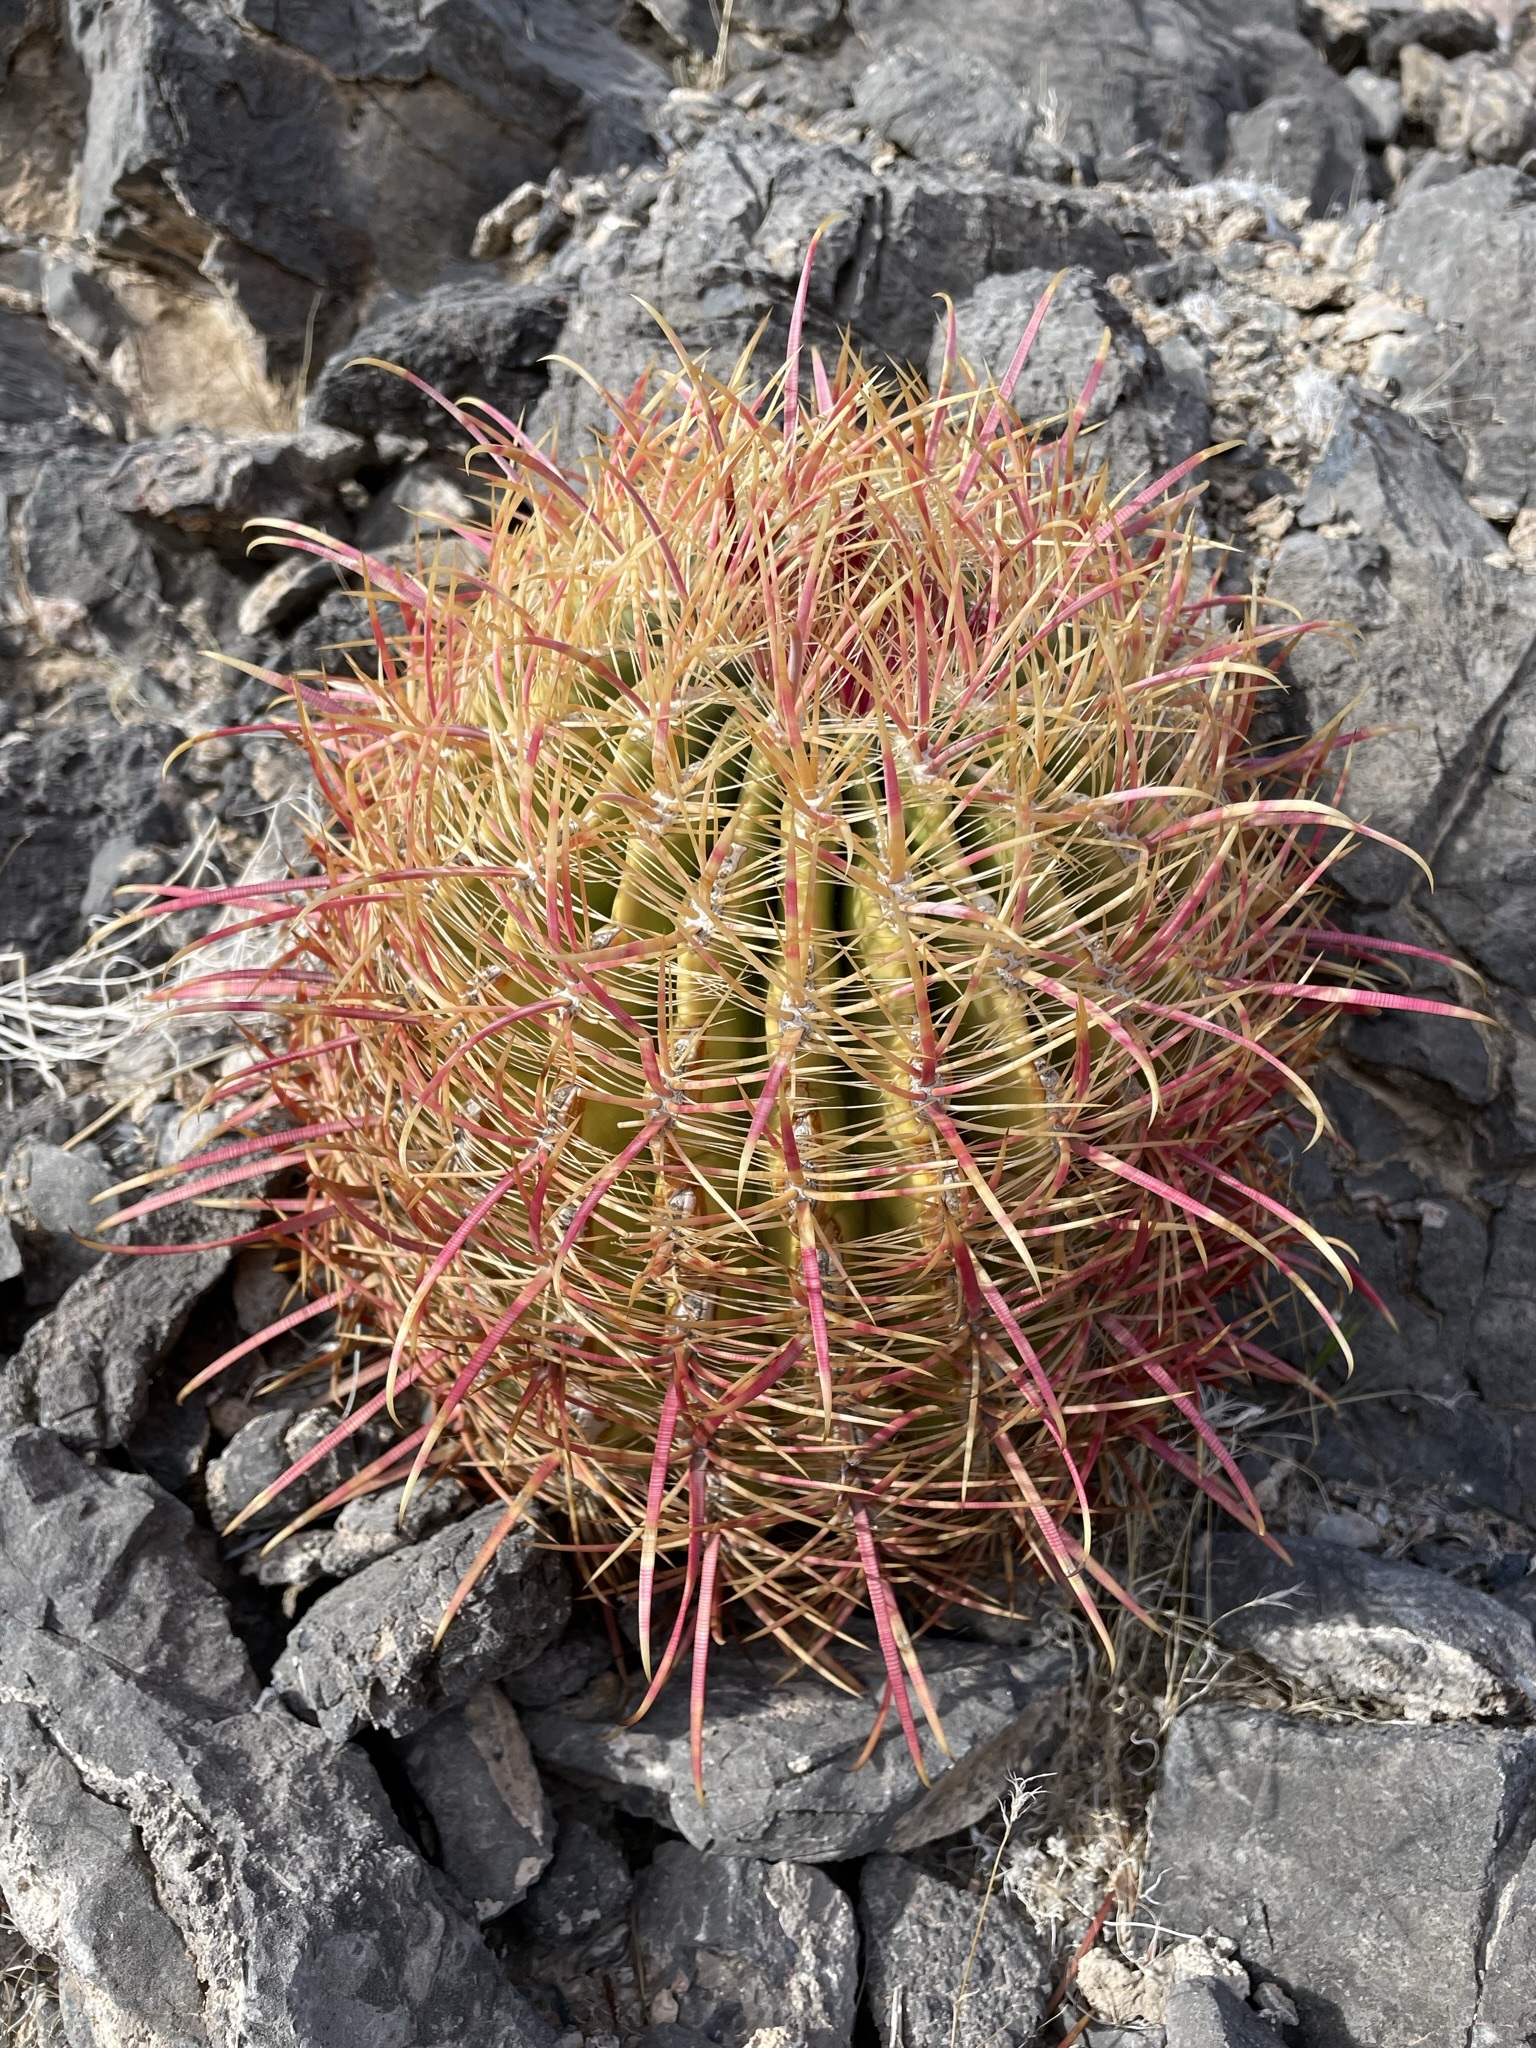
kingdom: Plantae
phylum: Tracheophyta
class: Magnoliopsida
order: Caryophyllales
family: Cactaceae
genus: Ferocactus
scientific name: Ferocactus cylindraceus
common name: California barrel cactus
